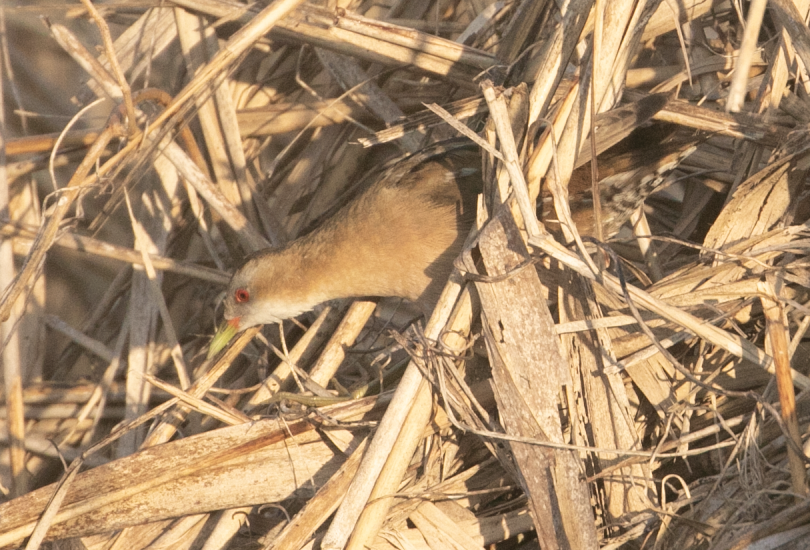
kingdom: Animalia
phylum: Chordata
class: Aves
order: Gruiformes
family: Rallidae
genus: Porzana
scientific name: Porzana parva
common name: Little crake
